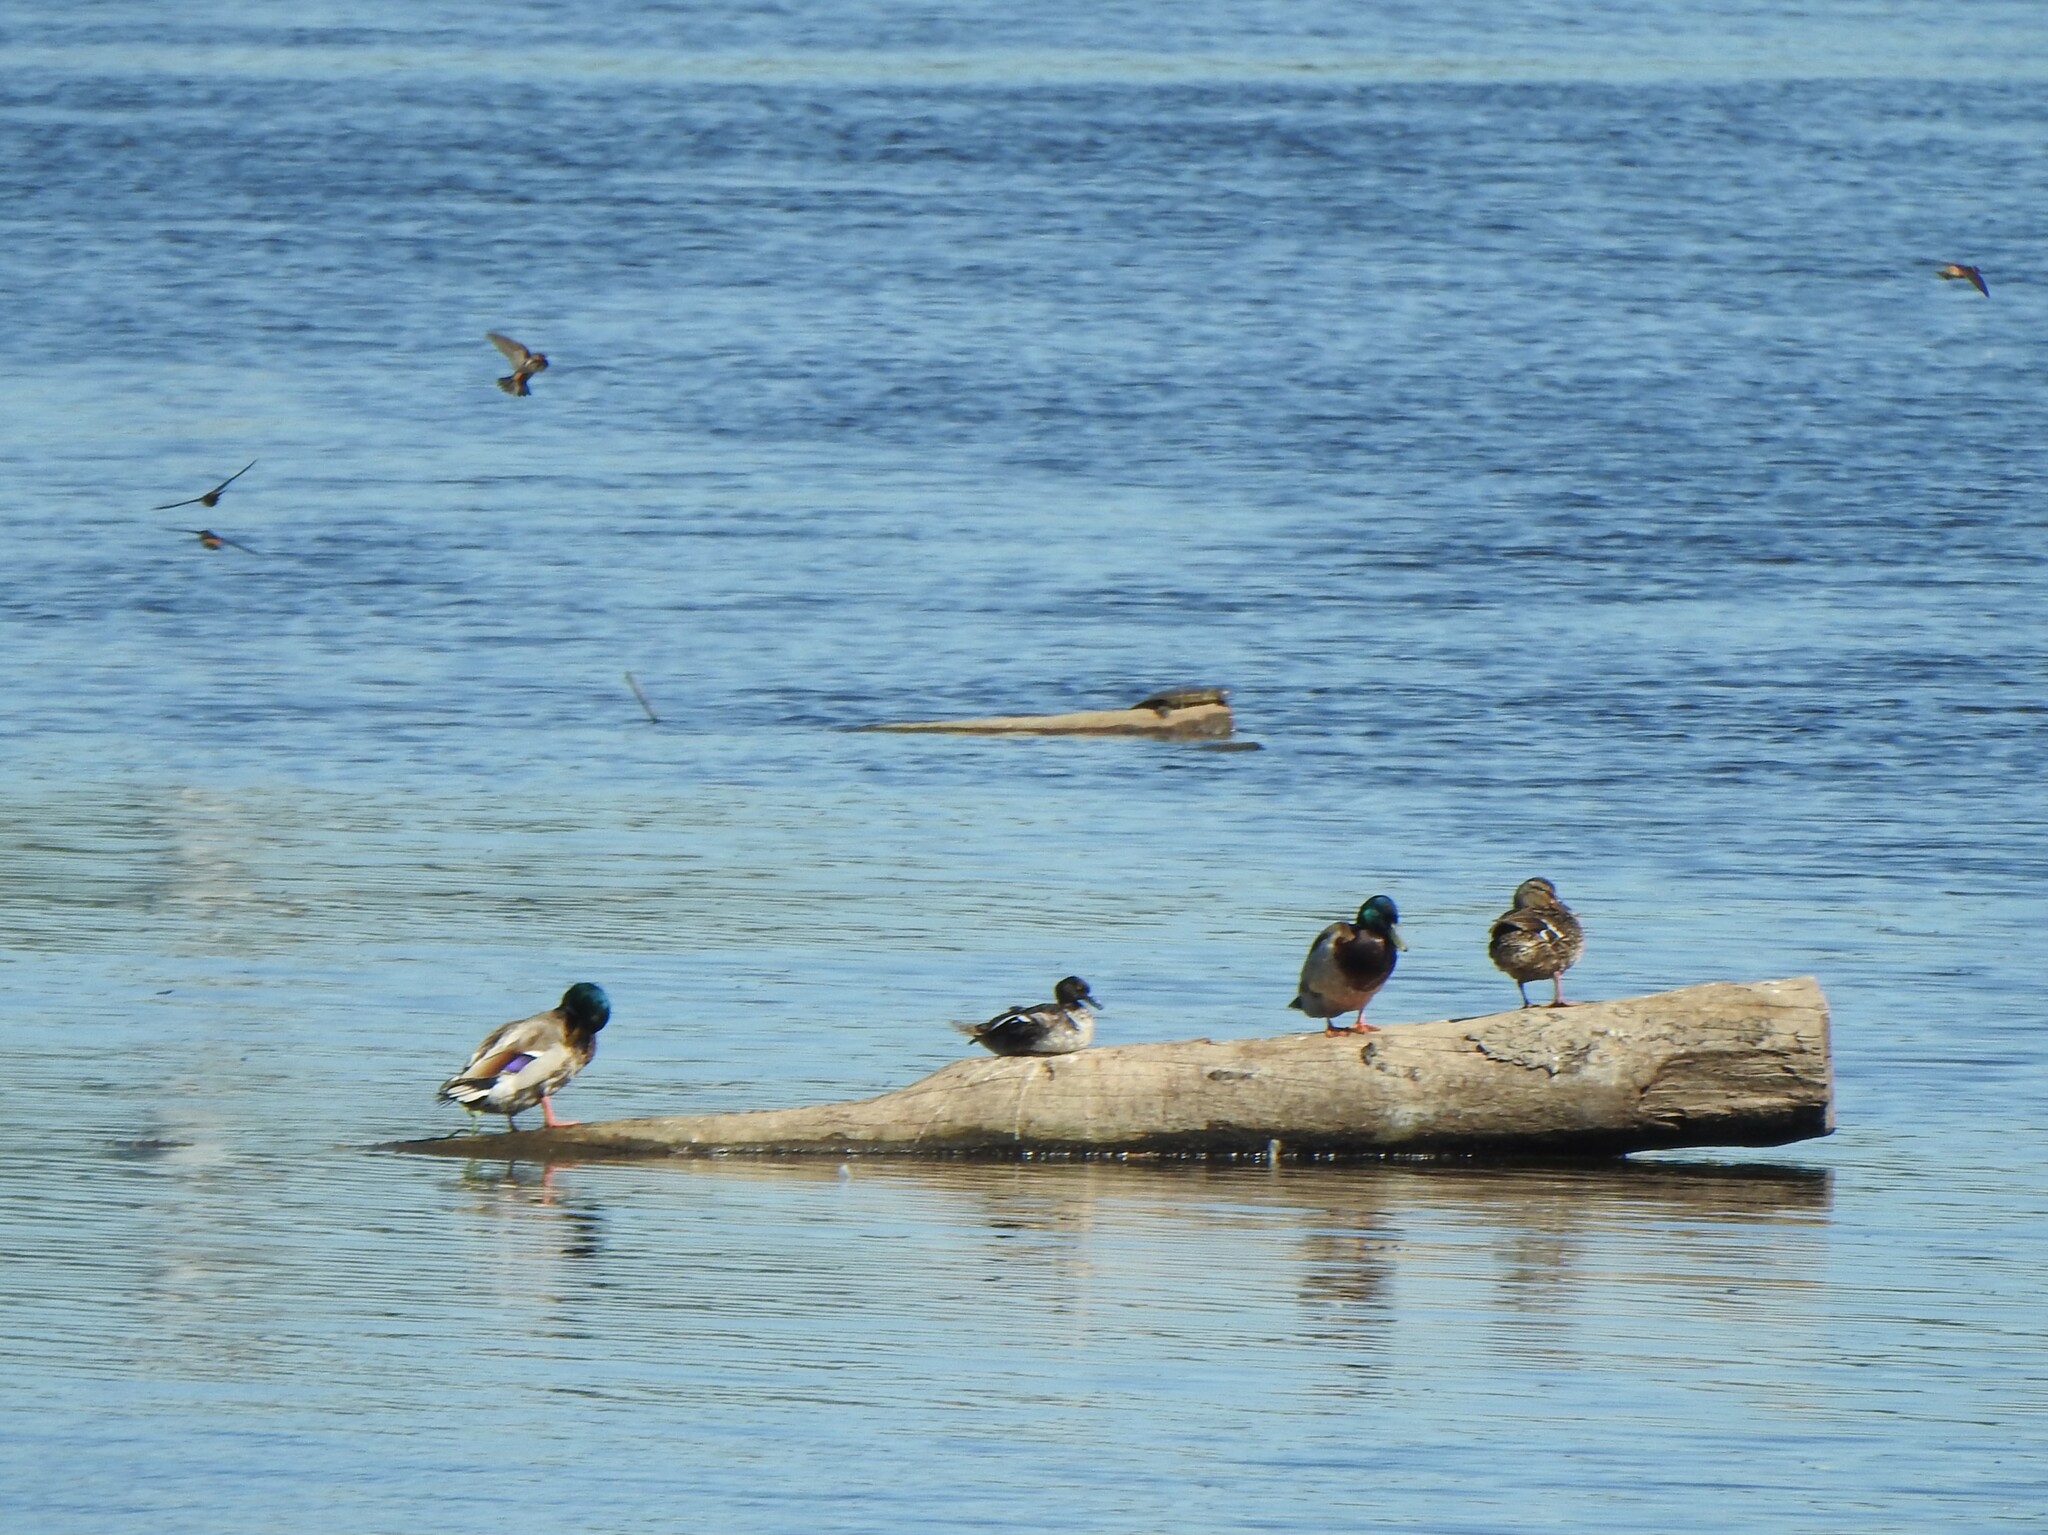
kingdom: Animalia
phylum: Chordata
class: Aves
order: Anseriformes
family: Anatidae
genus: Lophodytes
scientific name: Lophodytes cucullatus
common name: Hooded merganser
